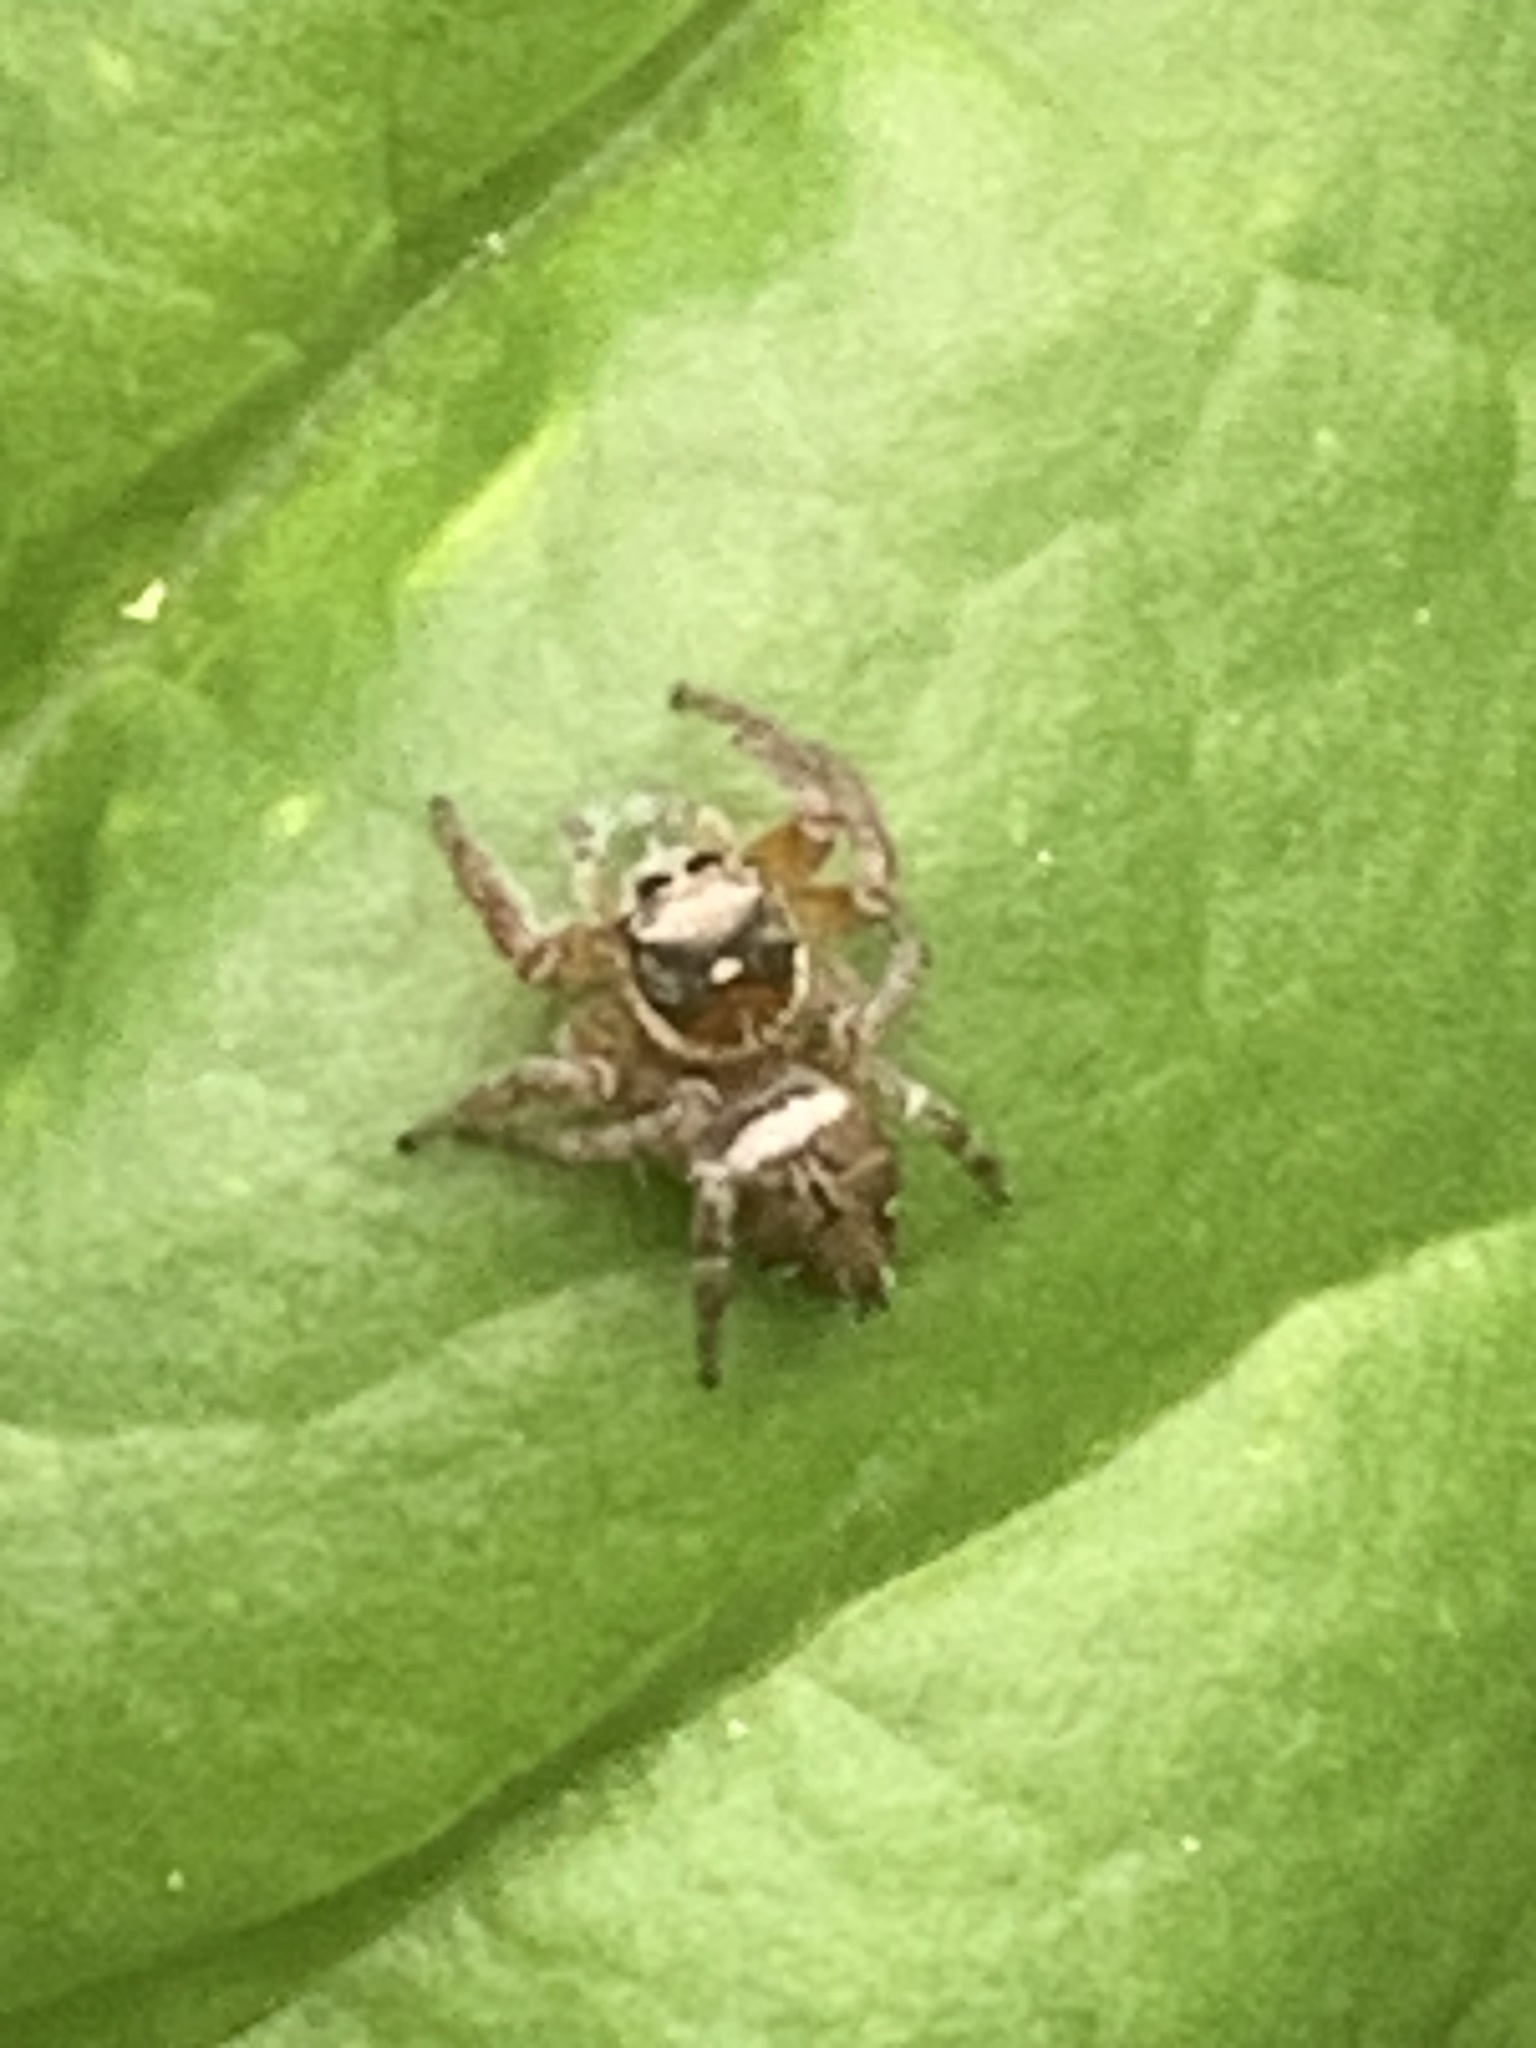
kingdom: Animalia
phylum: Arthropoda
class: Arachnida
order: Araneae
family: Salticidae
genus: Evarcha
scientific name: Evarcha jucunda
